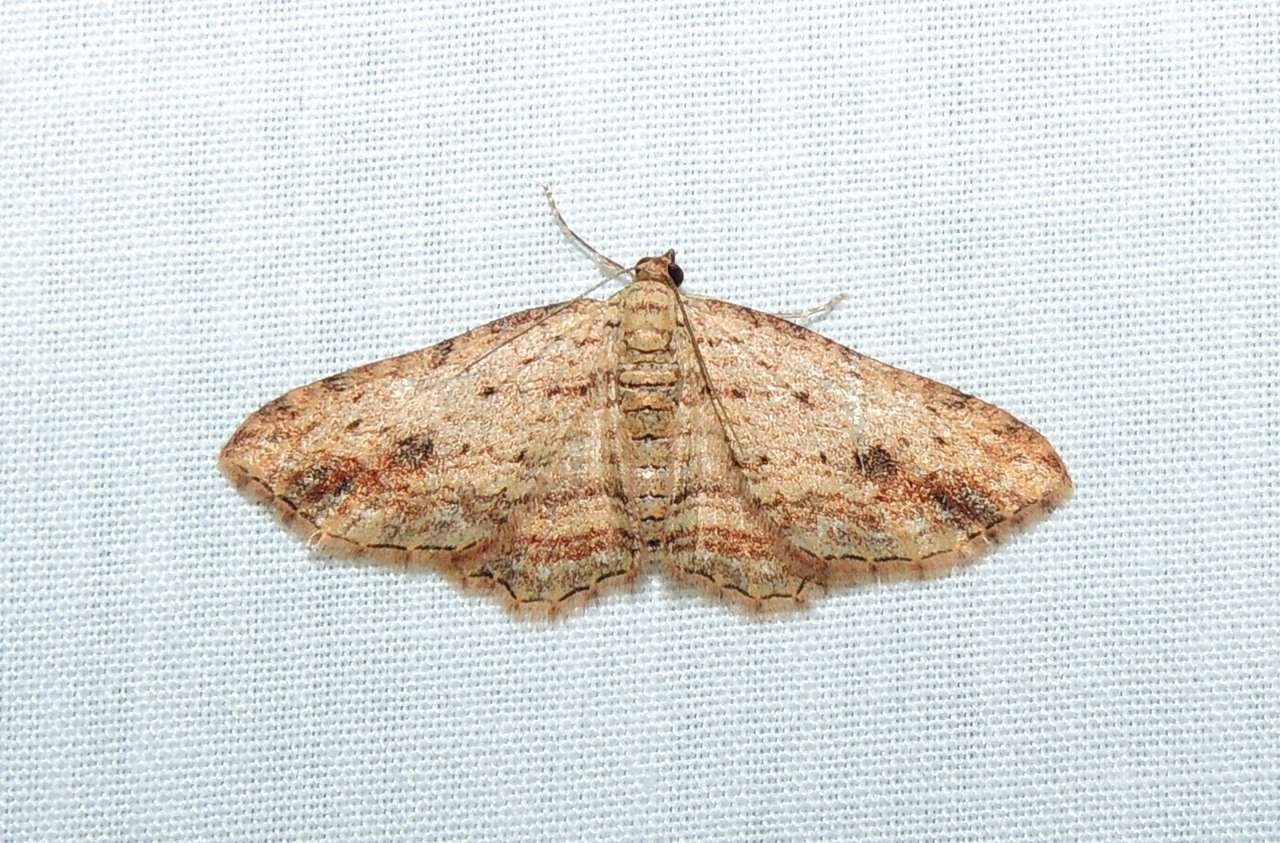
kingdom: Animalia
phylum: Arthropoda
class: Insecta
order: Lepidoptera
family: Geometridae
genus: Xanthorhoe
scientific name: Xanthorhoe anaspila
